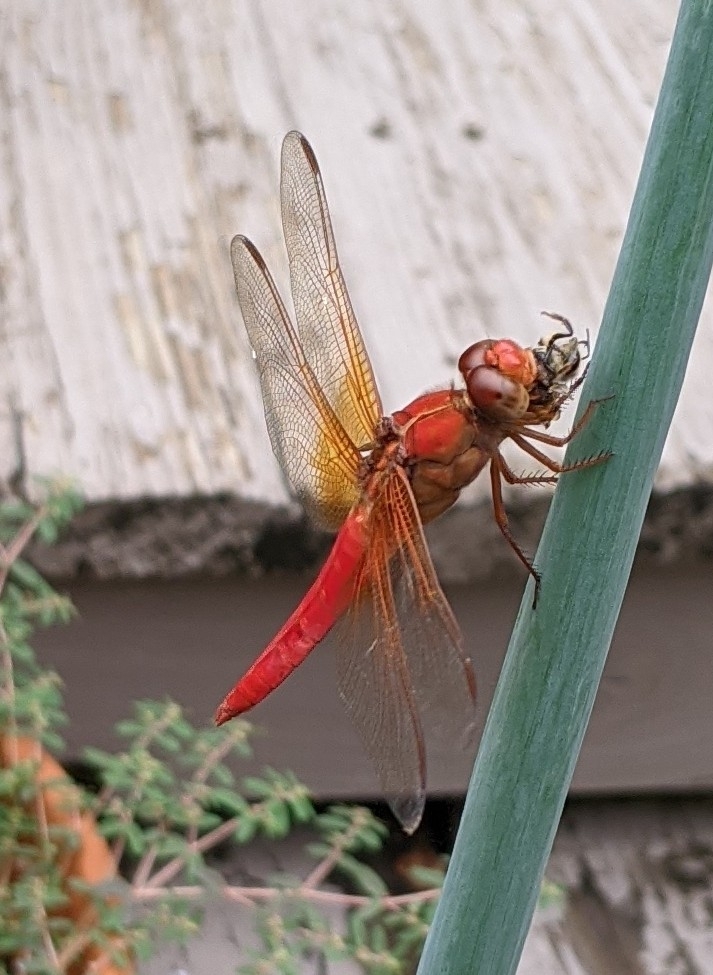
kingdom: Animalia
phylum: Arthropoda
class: Insecta
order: Odonata
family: Libellulidae
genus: Libellula
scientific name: Libellula croceipennis
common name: Neon skimmer
